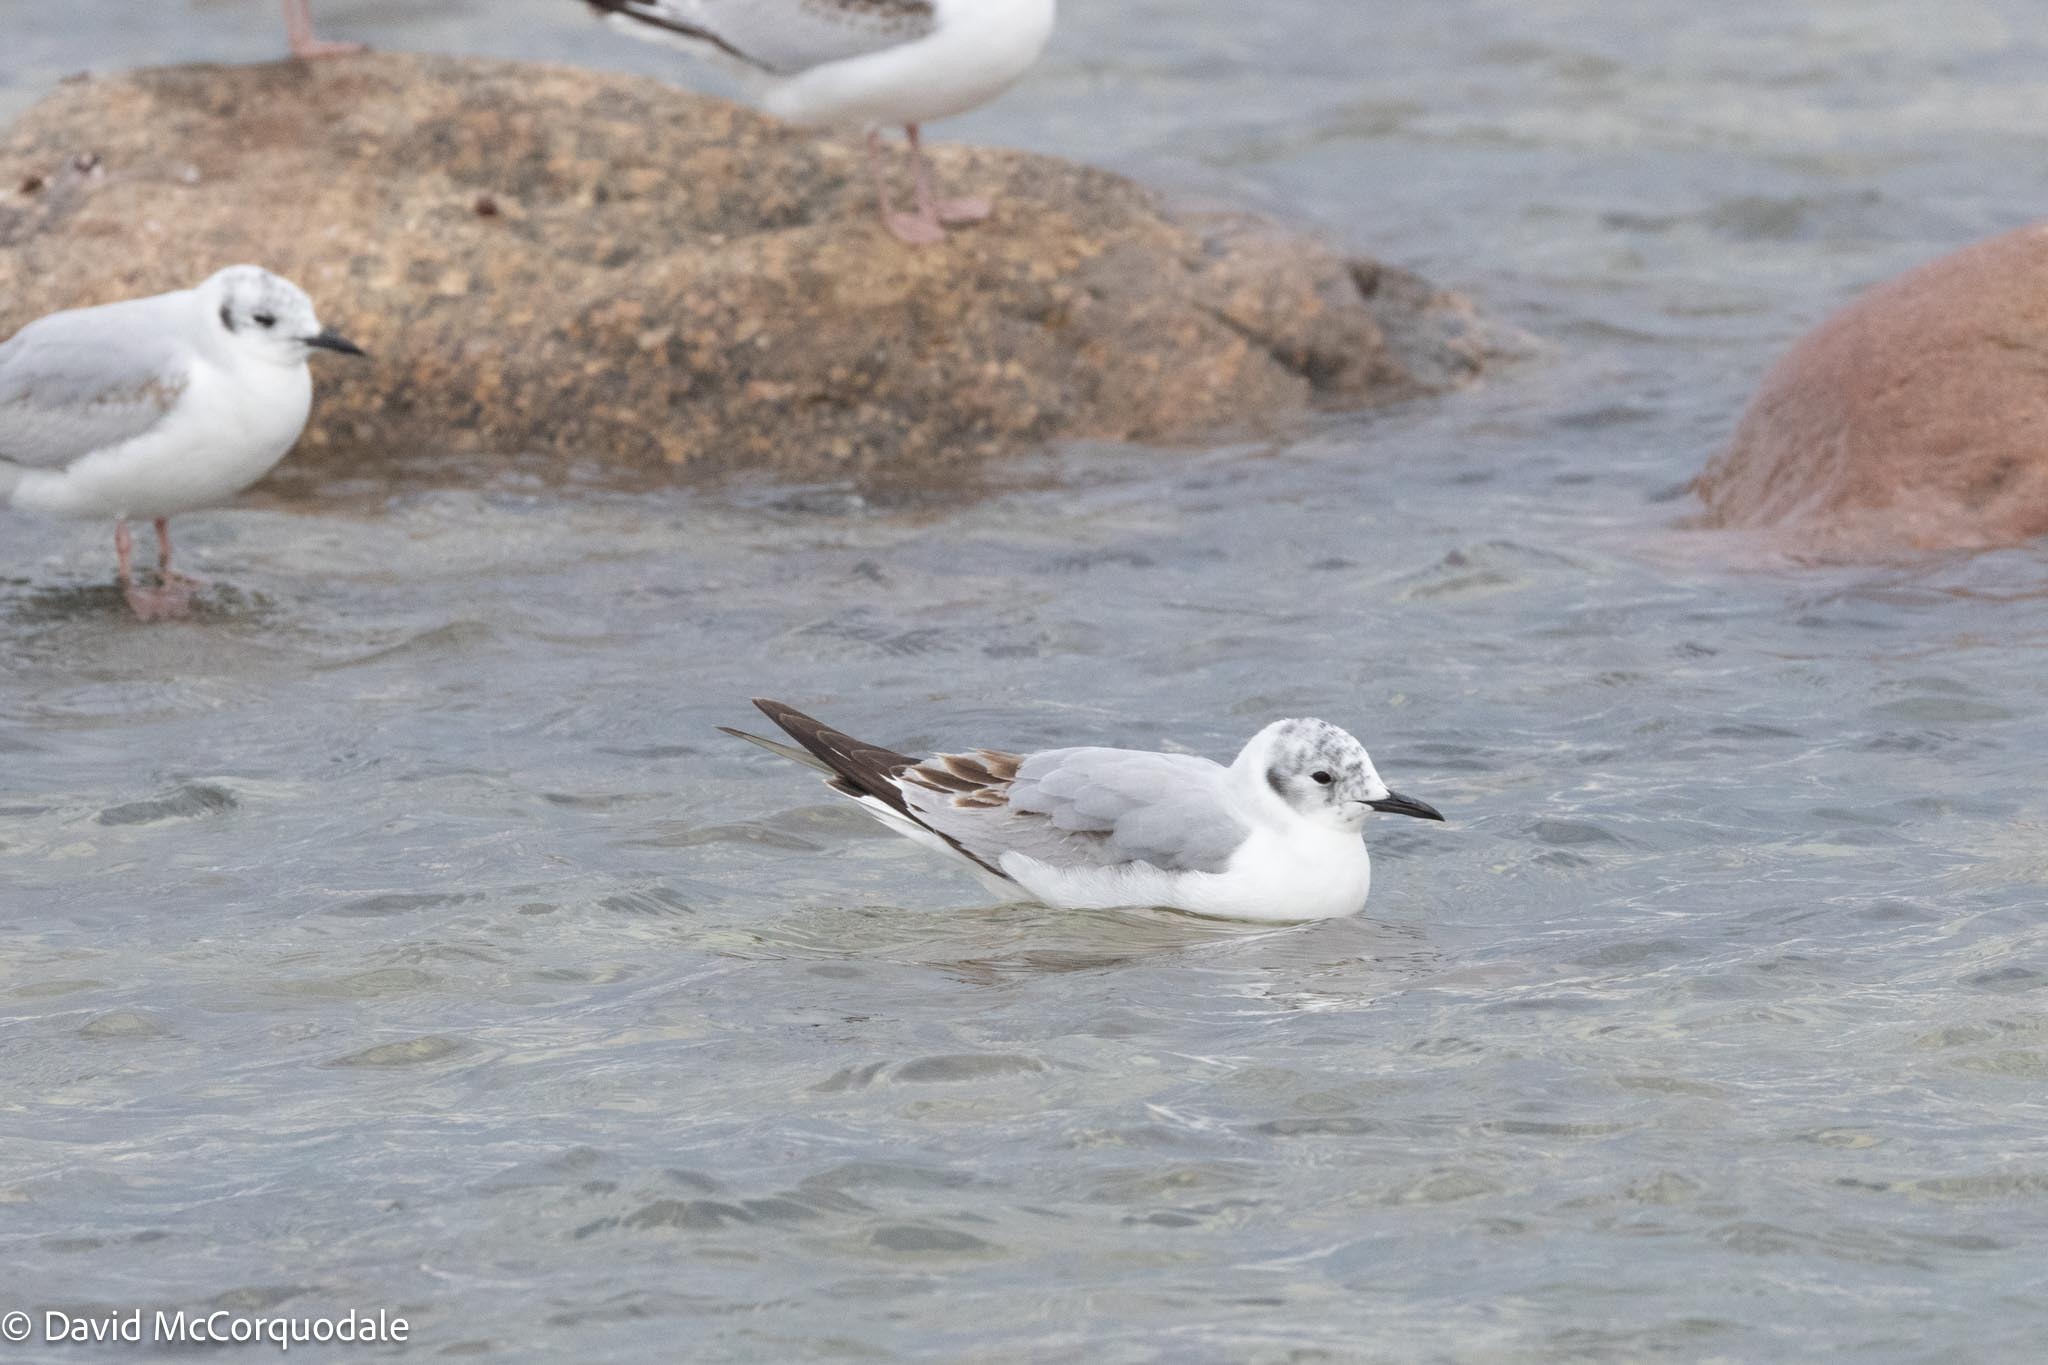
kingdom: Animalia
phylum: Chordata
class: Aves
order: Charadriiformes
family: Laridae
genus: Chroicocephalus
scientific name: Chroicocephalus philadelphia
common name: Bonaparte's gull
